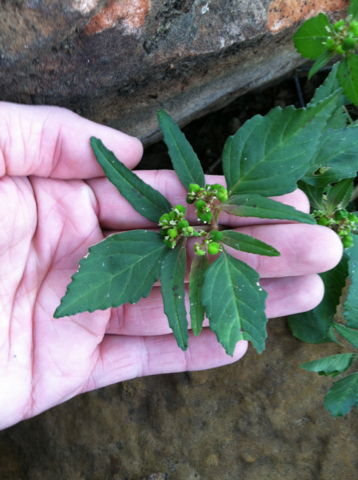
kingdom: Plantae
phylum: Tracheophyta
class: Magnoliopsida
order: Malpighiales
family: Euphorbiaceae
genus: Euphorbia
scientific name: Euphorbia dentata
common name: Dentate spurge
